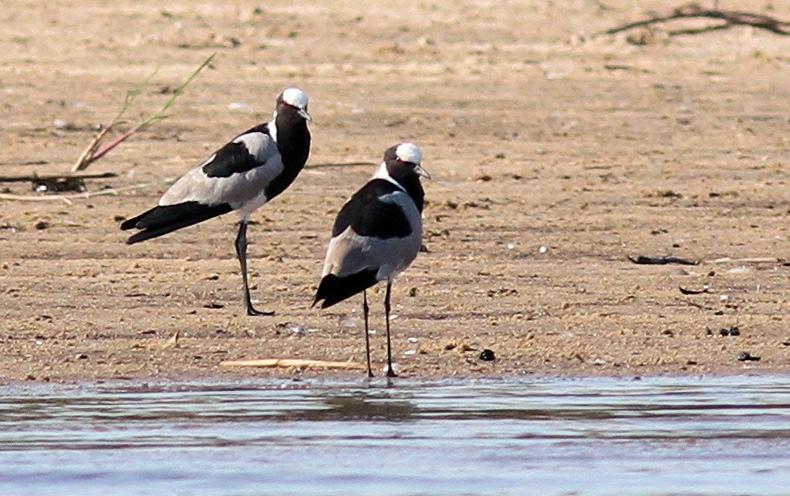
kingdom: Animalia
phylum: Chordata
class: Aves
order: Charadriiformes
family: Charadriidae
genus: Vanellus
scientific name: Vanellus armatus
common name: Blacksmith lapwing
